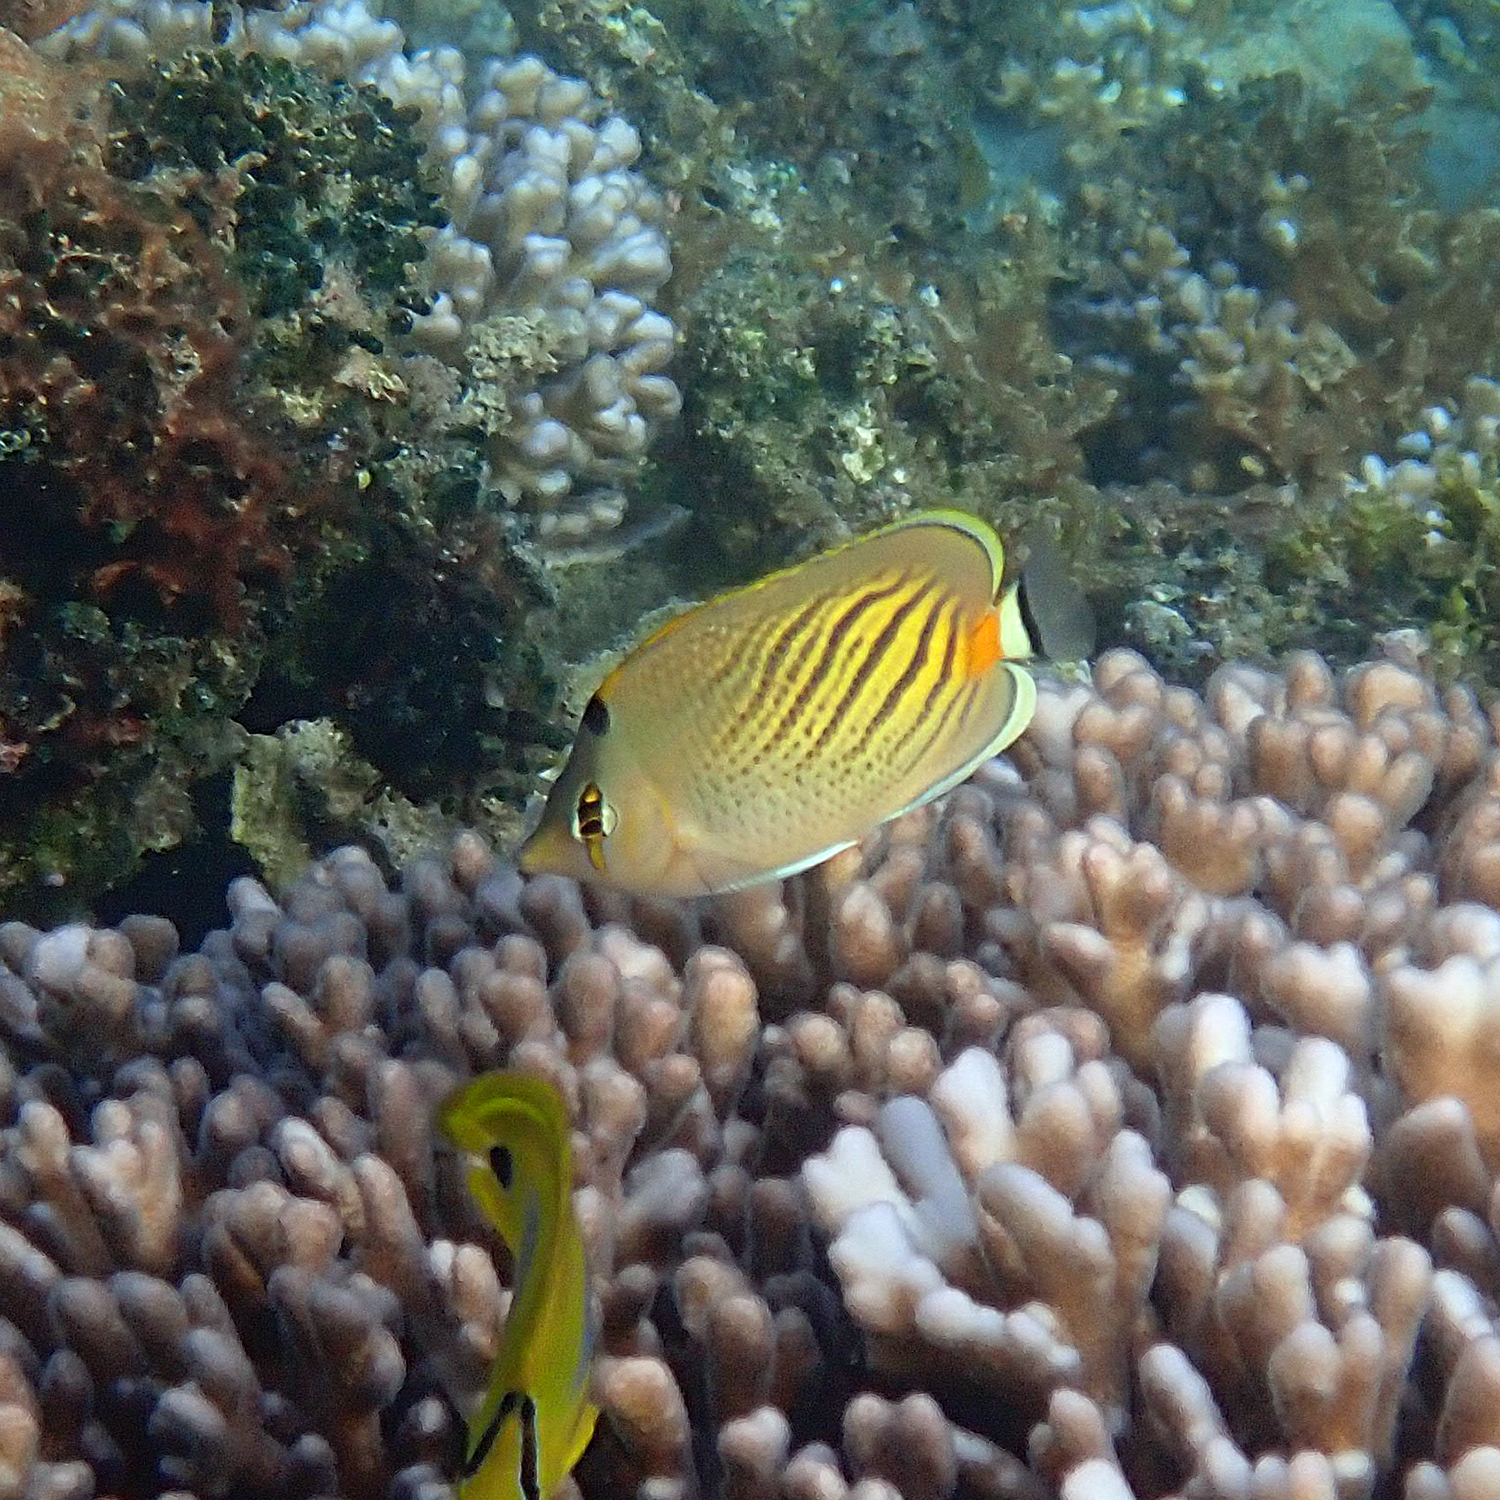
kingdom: Animalia
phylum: Chordata
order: Perciformes
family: Chaetodontidae
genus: Chaetodon
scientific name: Chaetodon pelewensis
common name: Dot-and-dash butterflyfish
